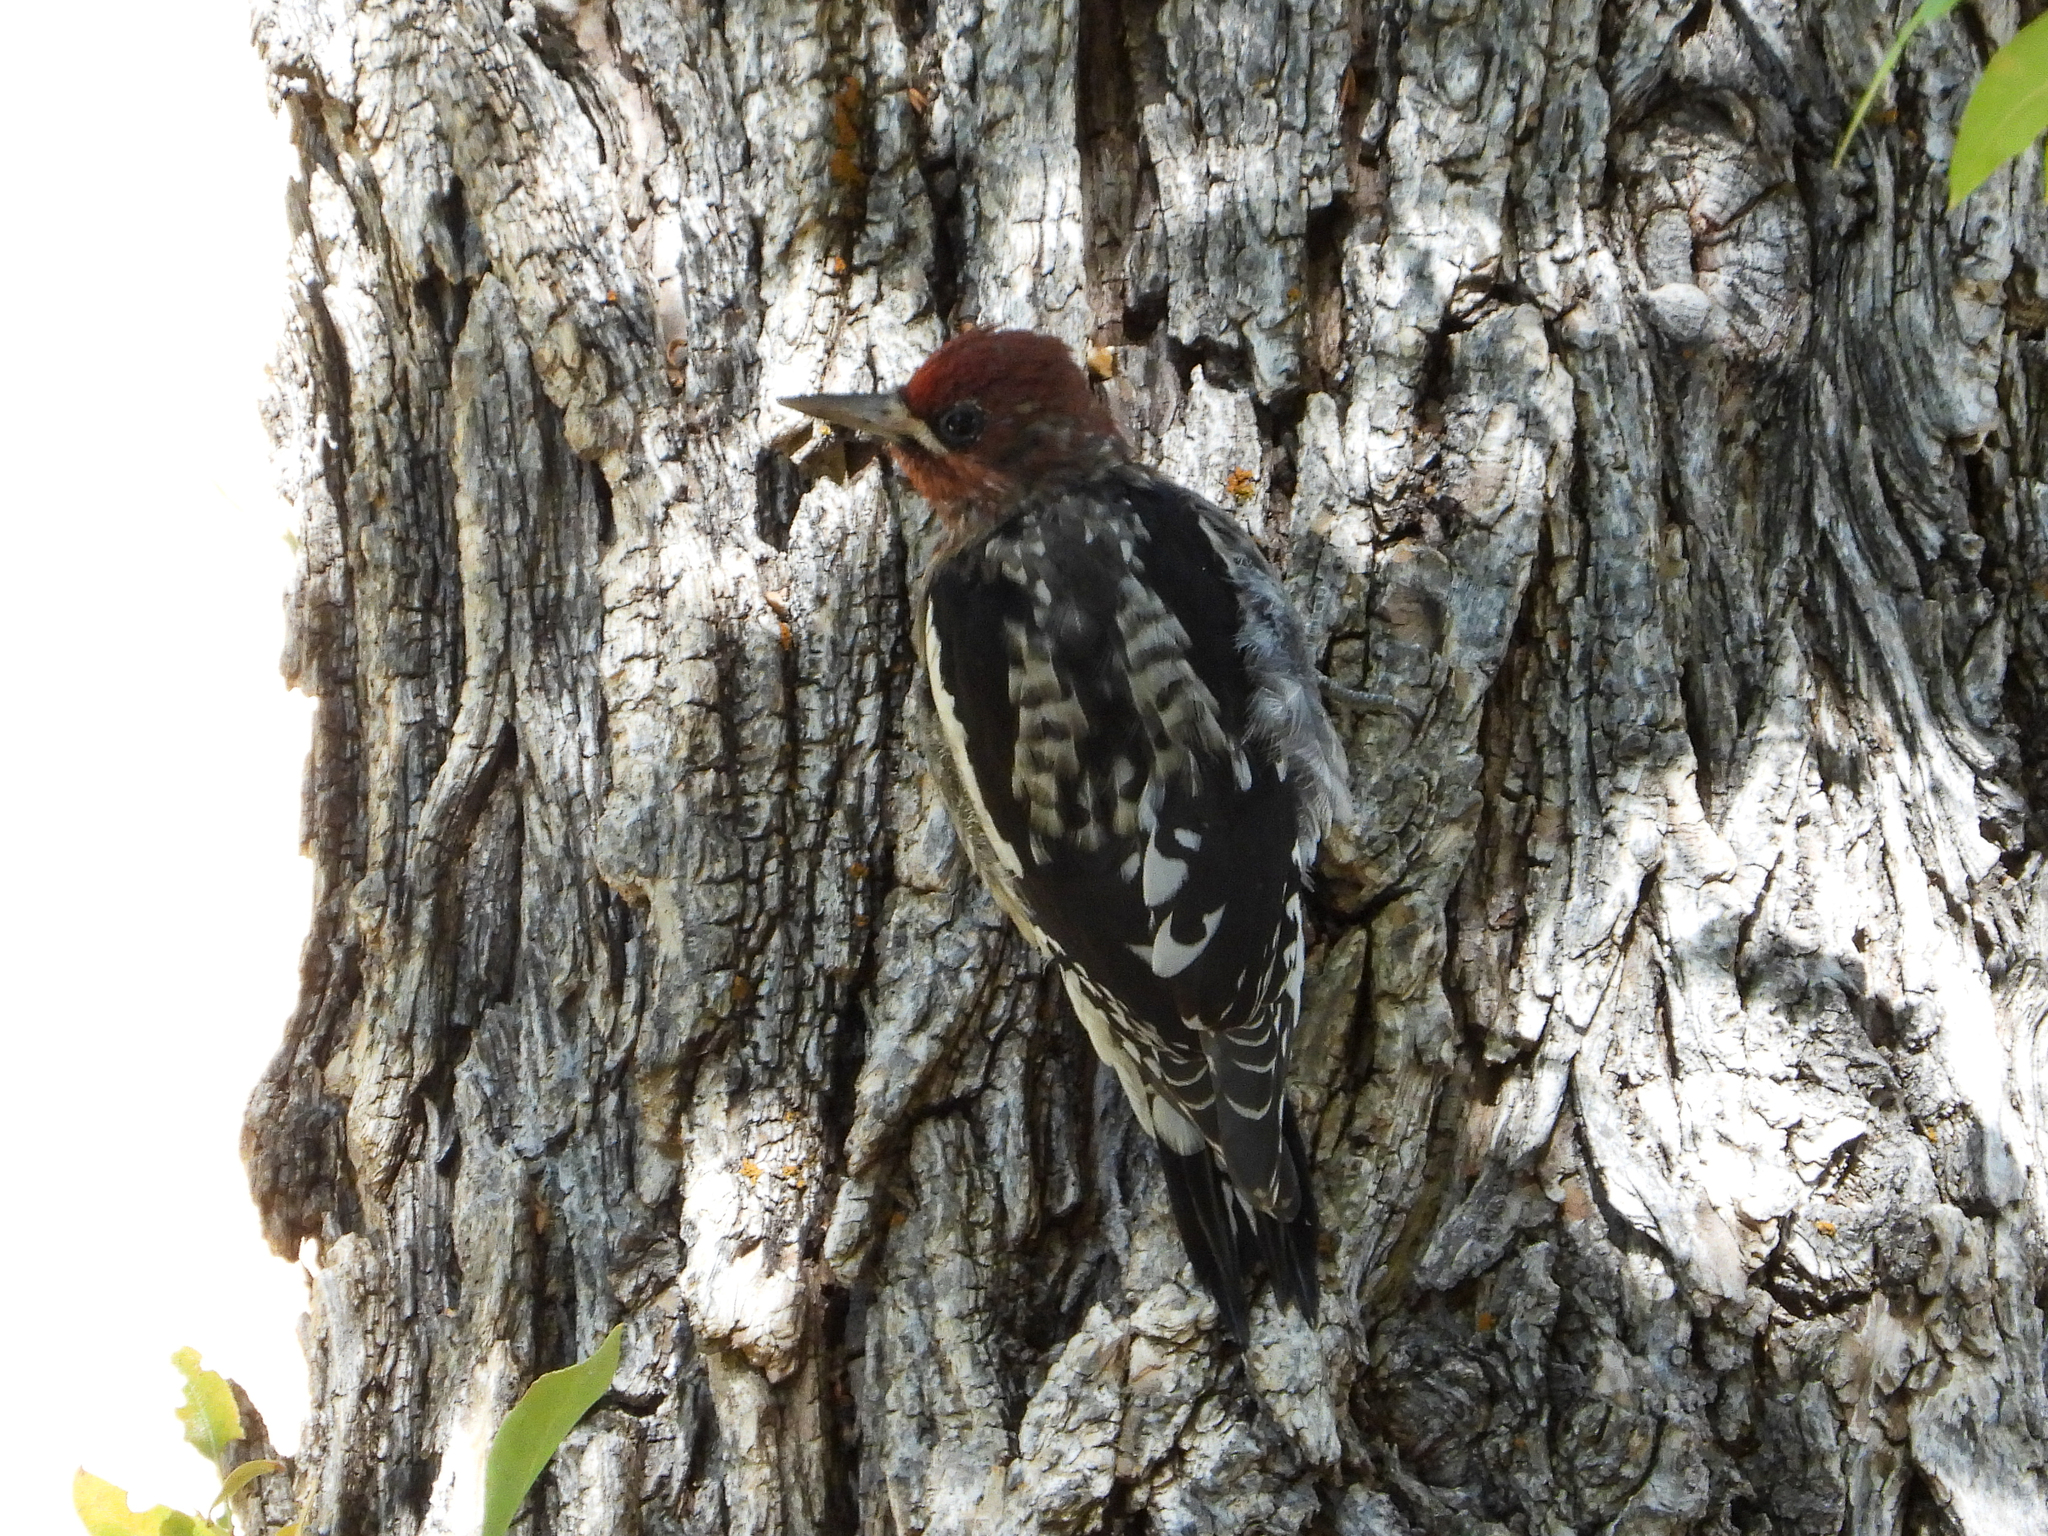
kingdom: Animalia
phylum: Chordata
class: Aves
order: Piciformes
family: Picidae
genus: Sphyrapicus
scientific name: Sphyrapicus ruber
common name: Red-breasted sapsucker
